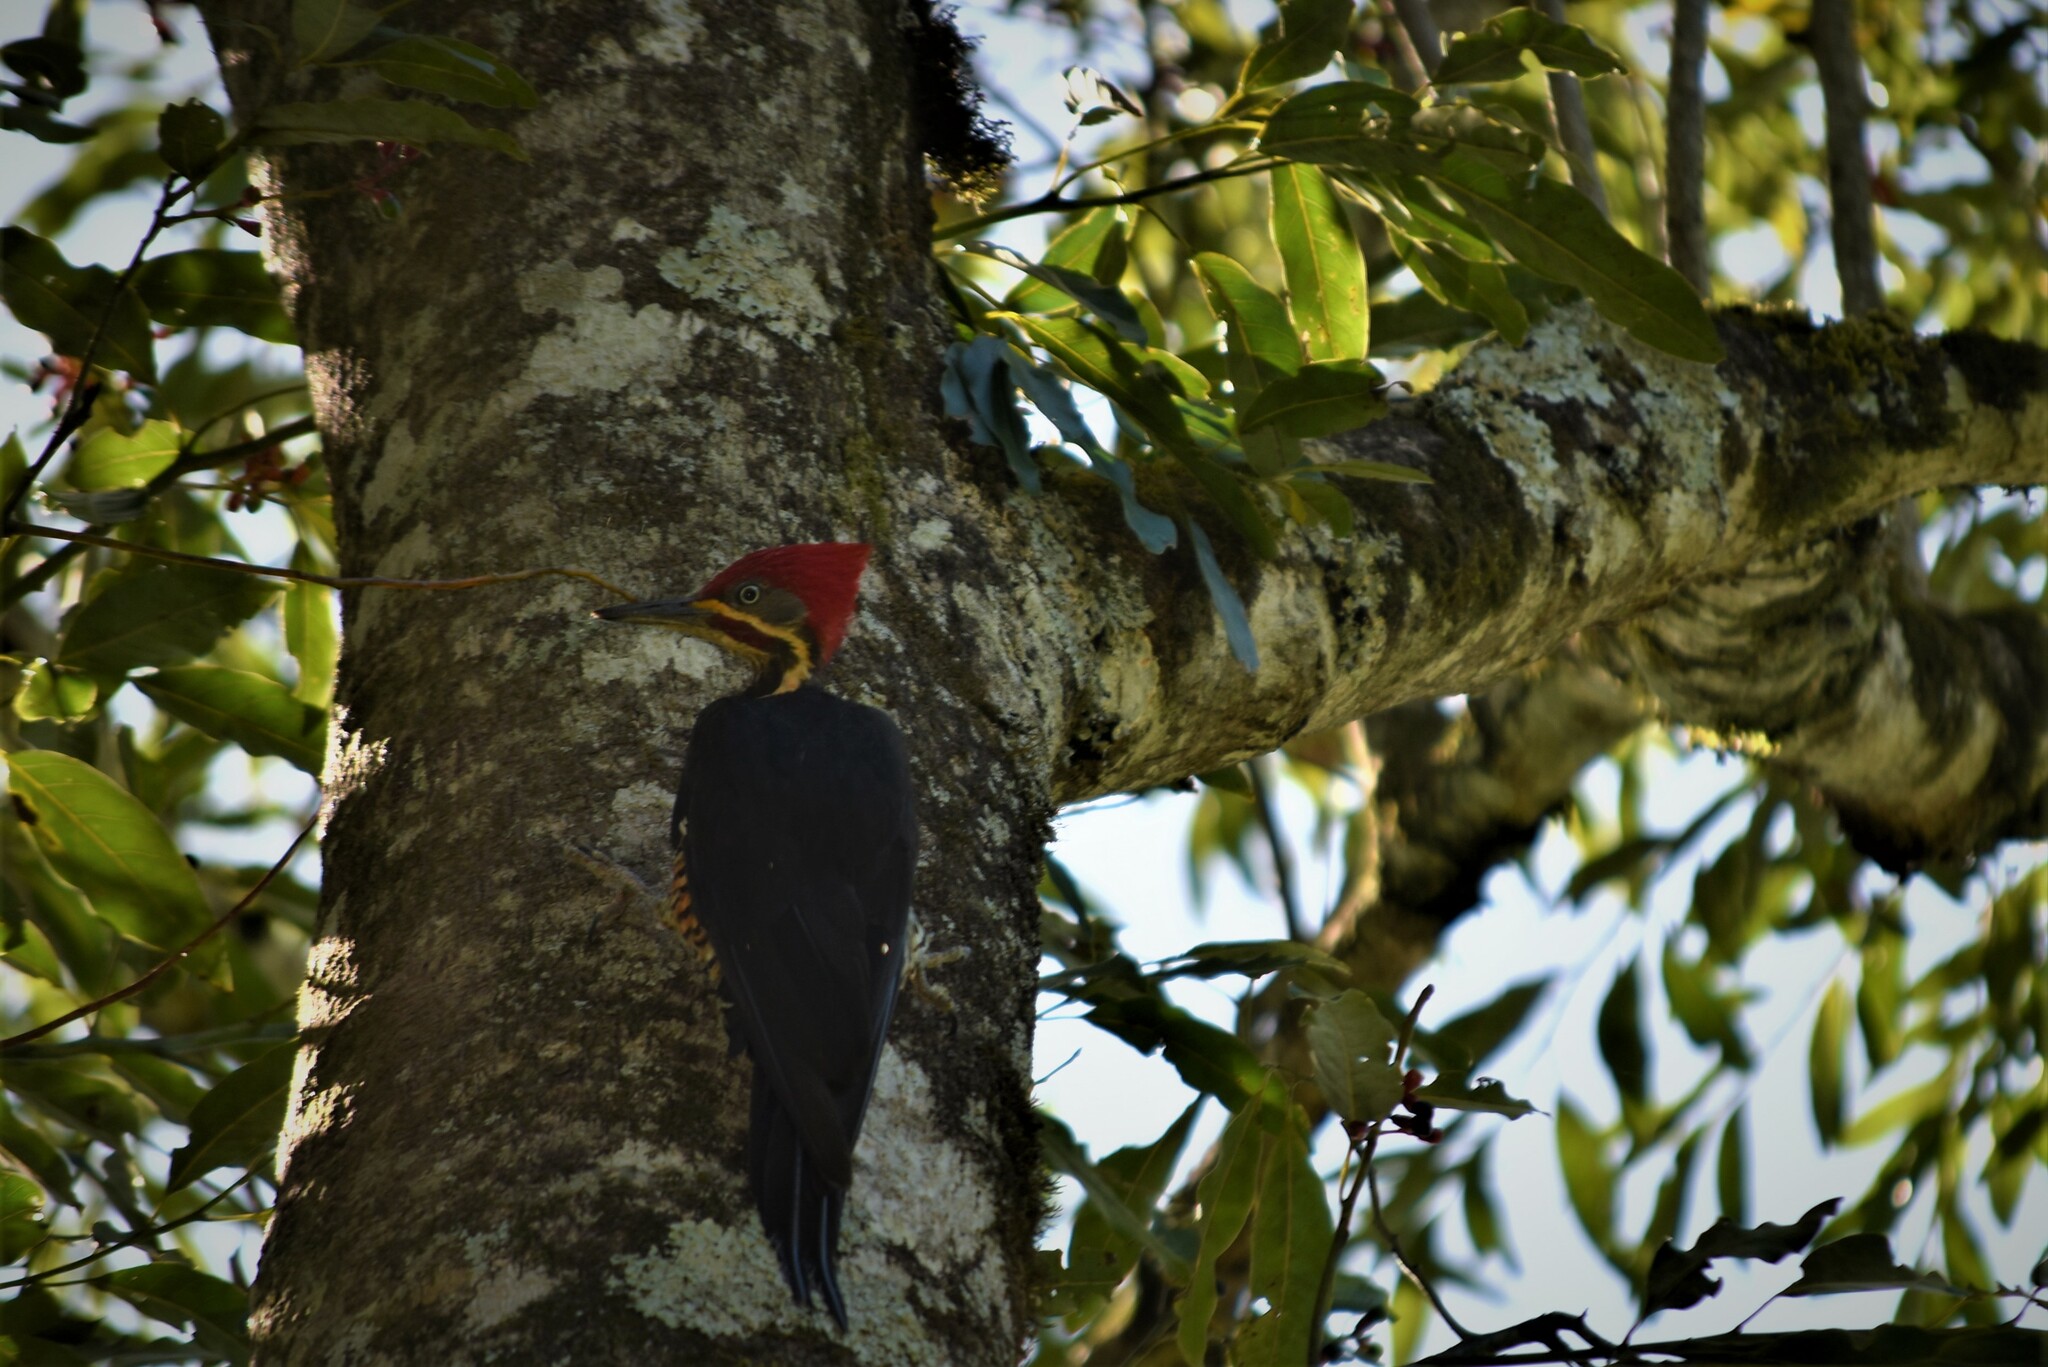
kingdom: Animalia
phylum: Chordata
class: Aves
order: Piciformes
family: Picidae
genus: Dryocopus
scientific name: Dryocopus lineatus
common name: Lineated woodpecker
